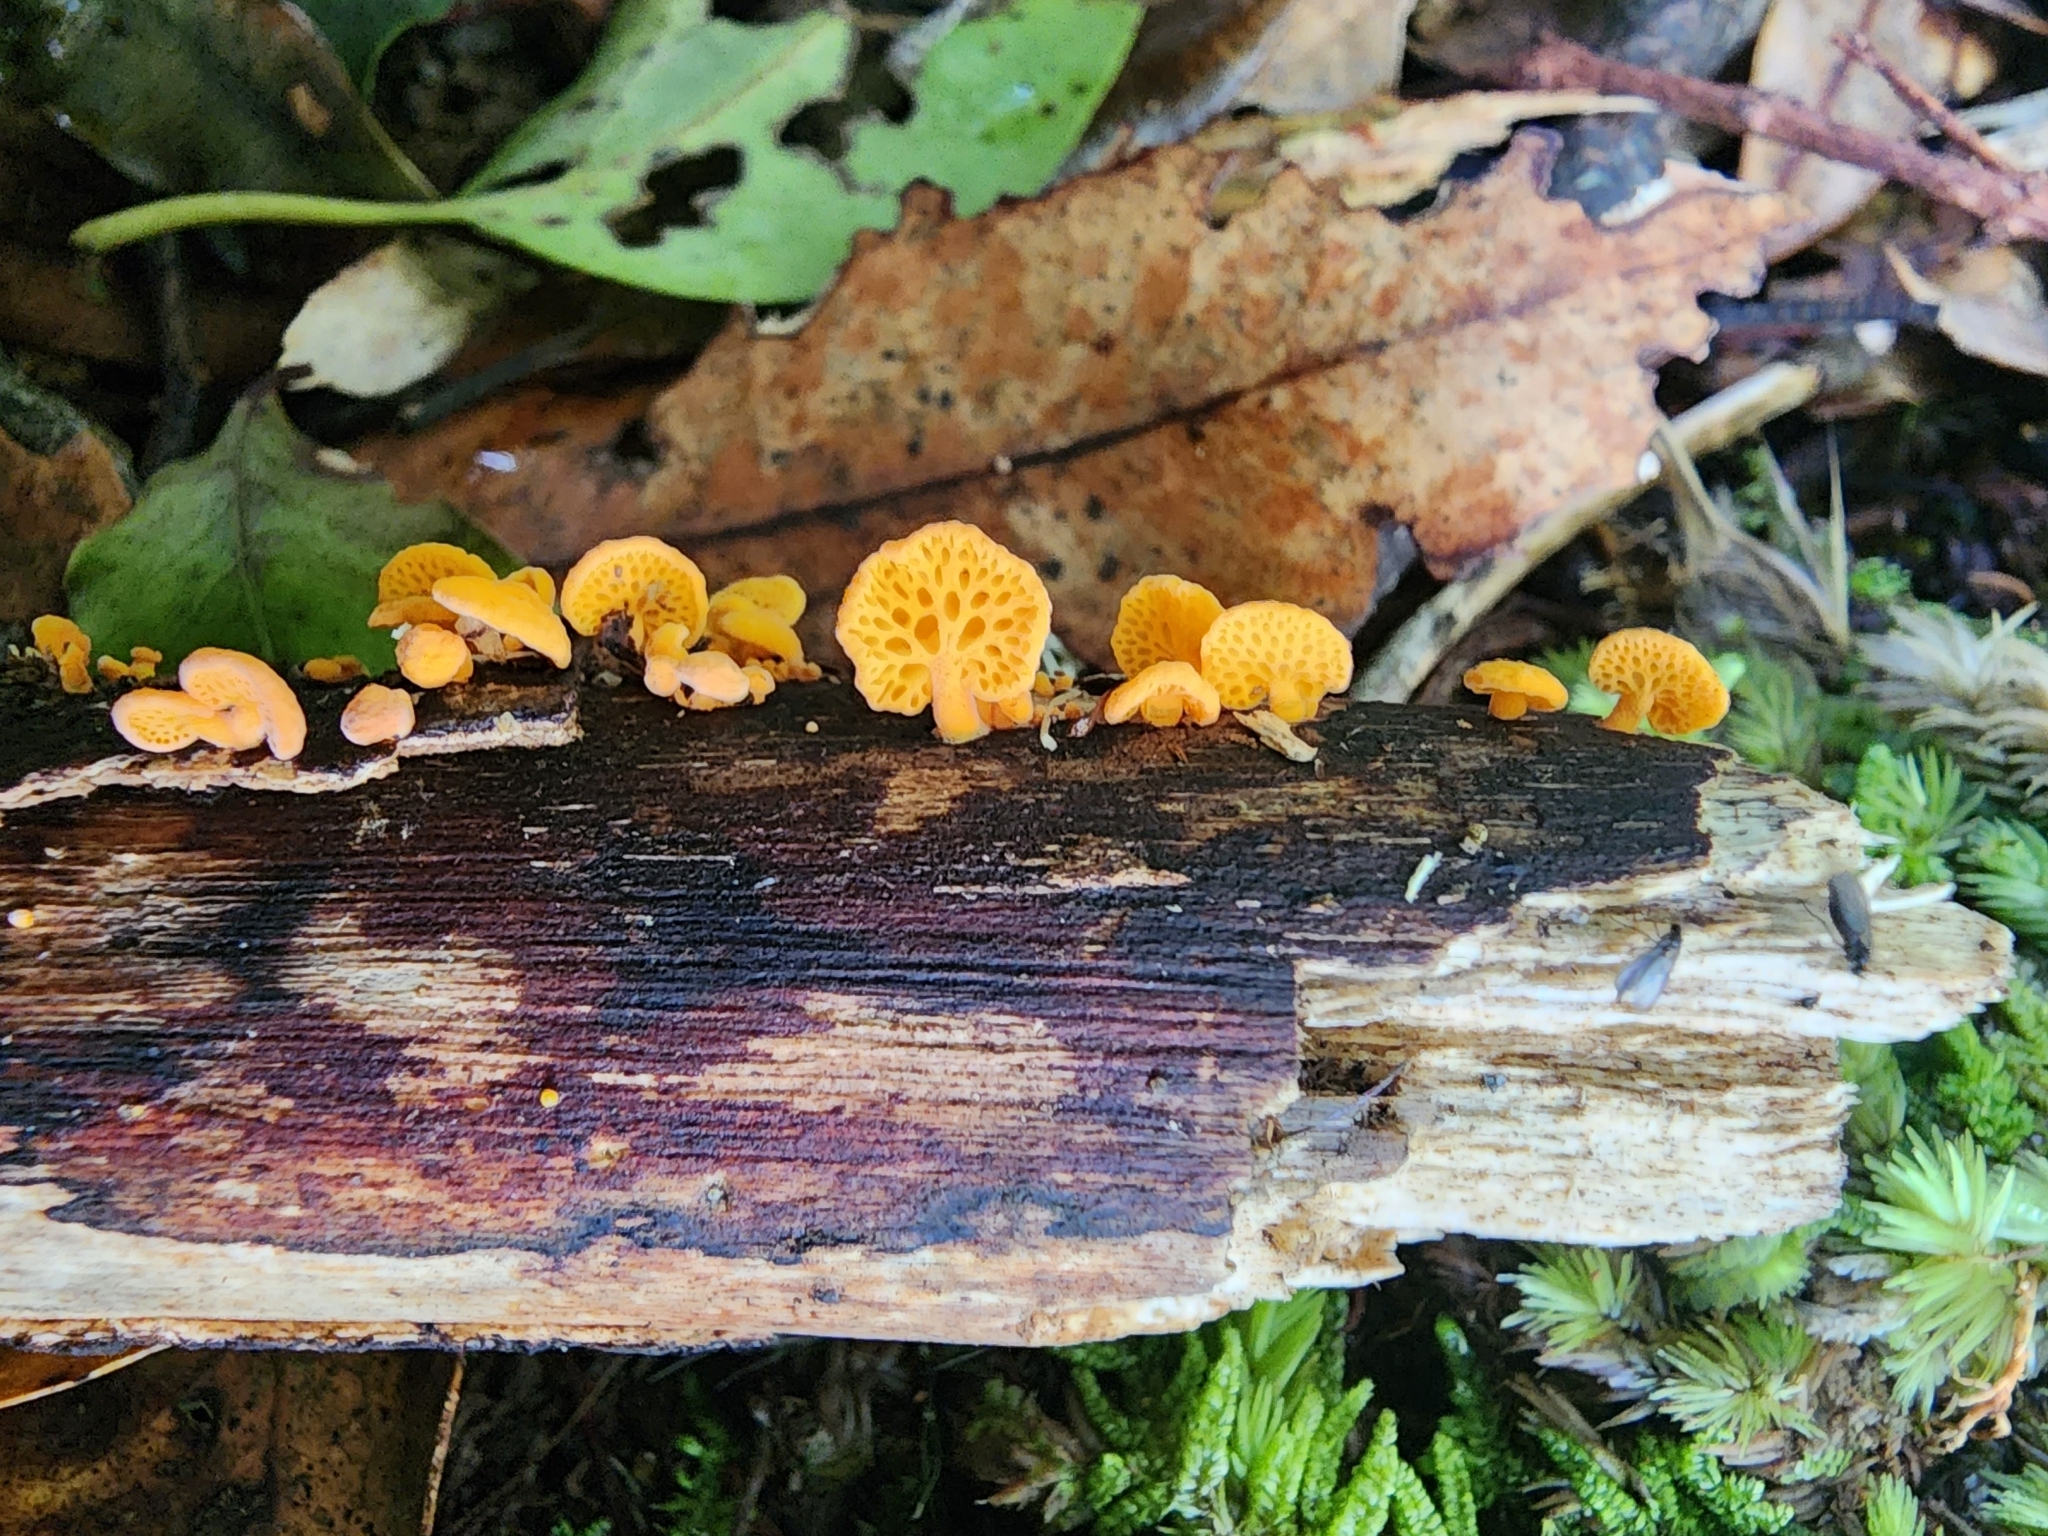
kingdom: Fungi
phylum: Basidiomycota
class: Agaricomycetes
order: Agaricales
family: Mycenaceae
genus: Favolaschia
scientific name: Favolaschia claudopus
